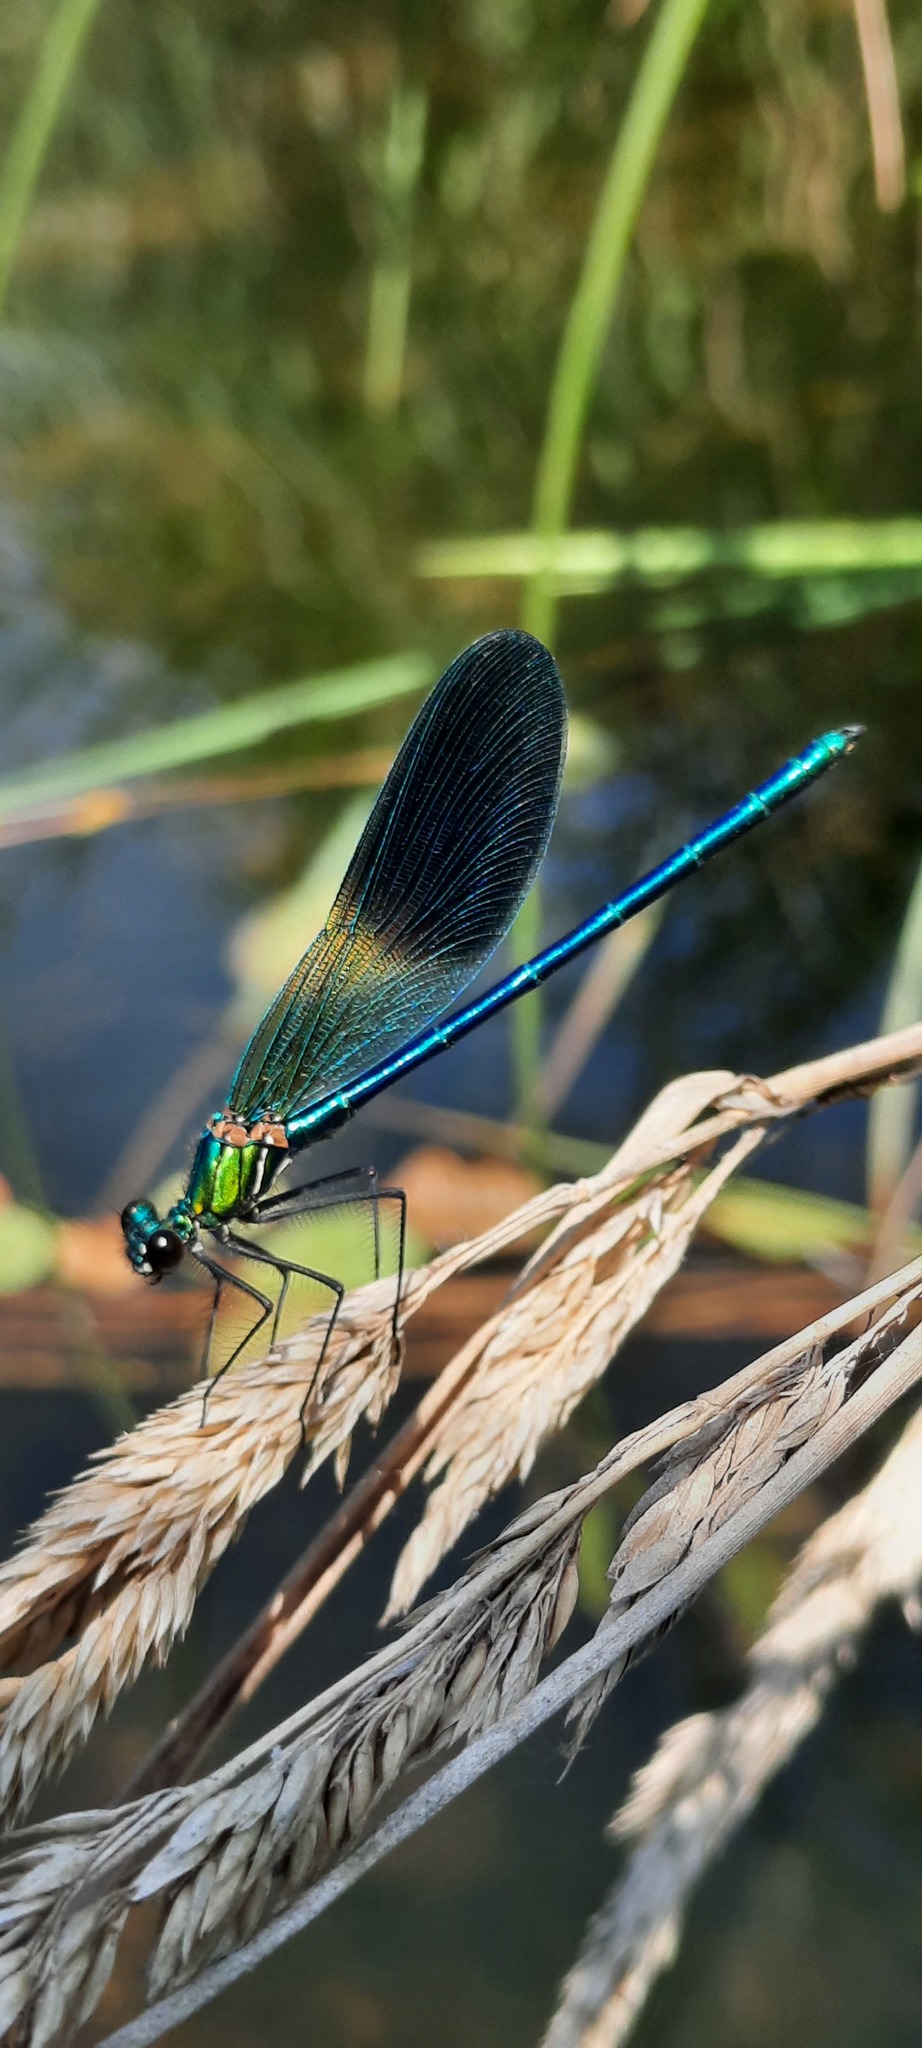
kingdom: Animalia
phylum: Arthropoda
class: Insecta
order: Odonata
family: Calopterygidae
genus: Calopteryx
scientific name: Calopteryx xanthostoma
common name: Western demoiselle
